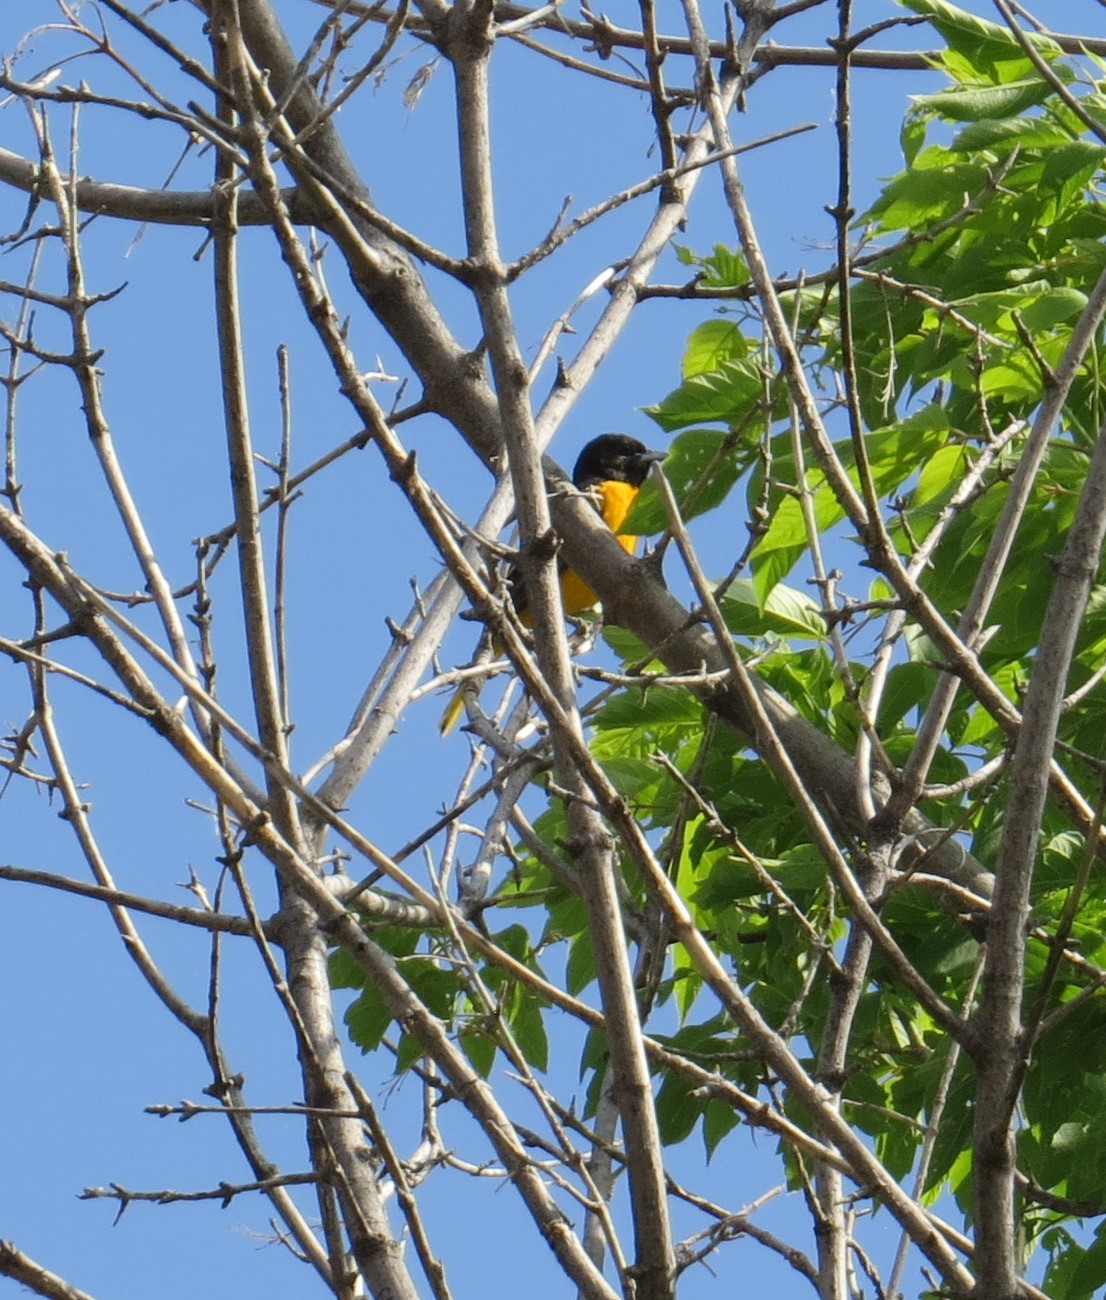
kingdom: Animalia
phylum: Chordata
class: Aves
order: Passeriformes
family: Icteridae
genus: Icterus
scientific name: Icterus galbula
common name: Baltimore oriole
